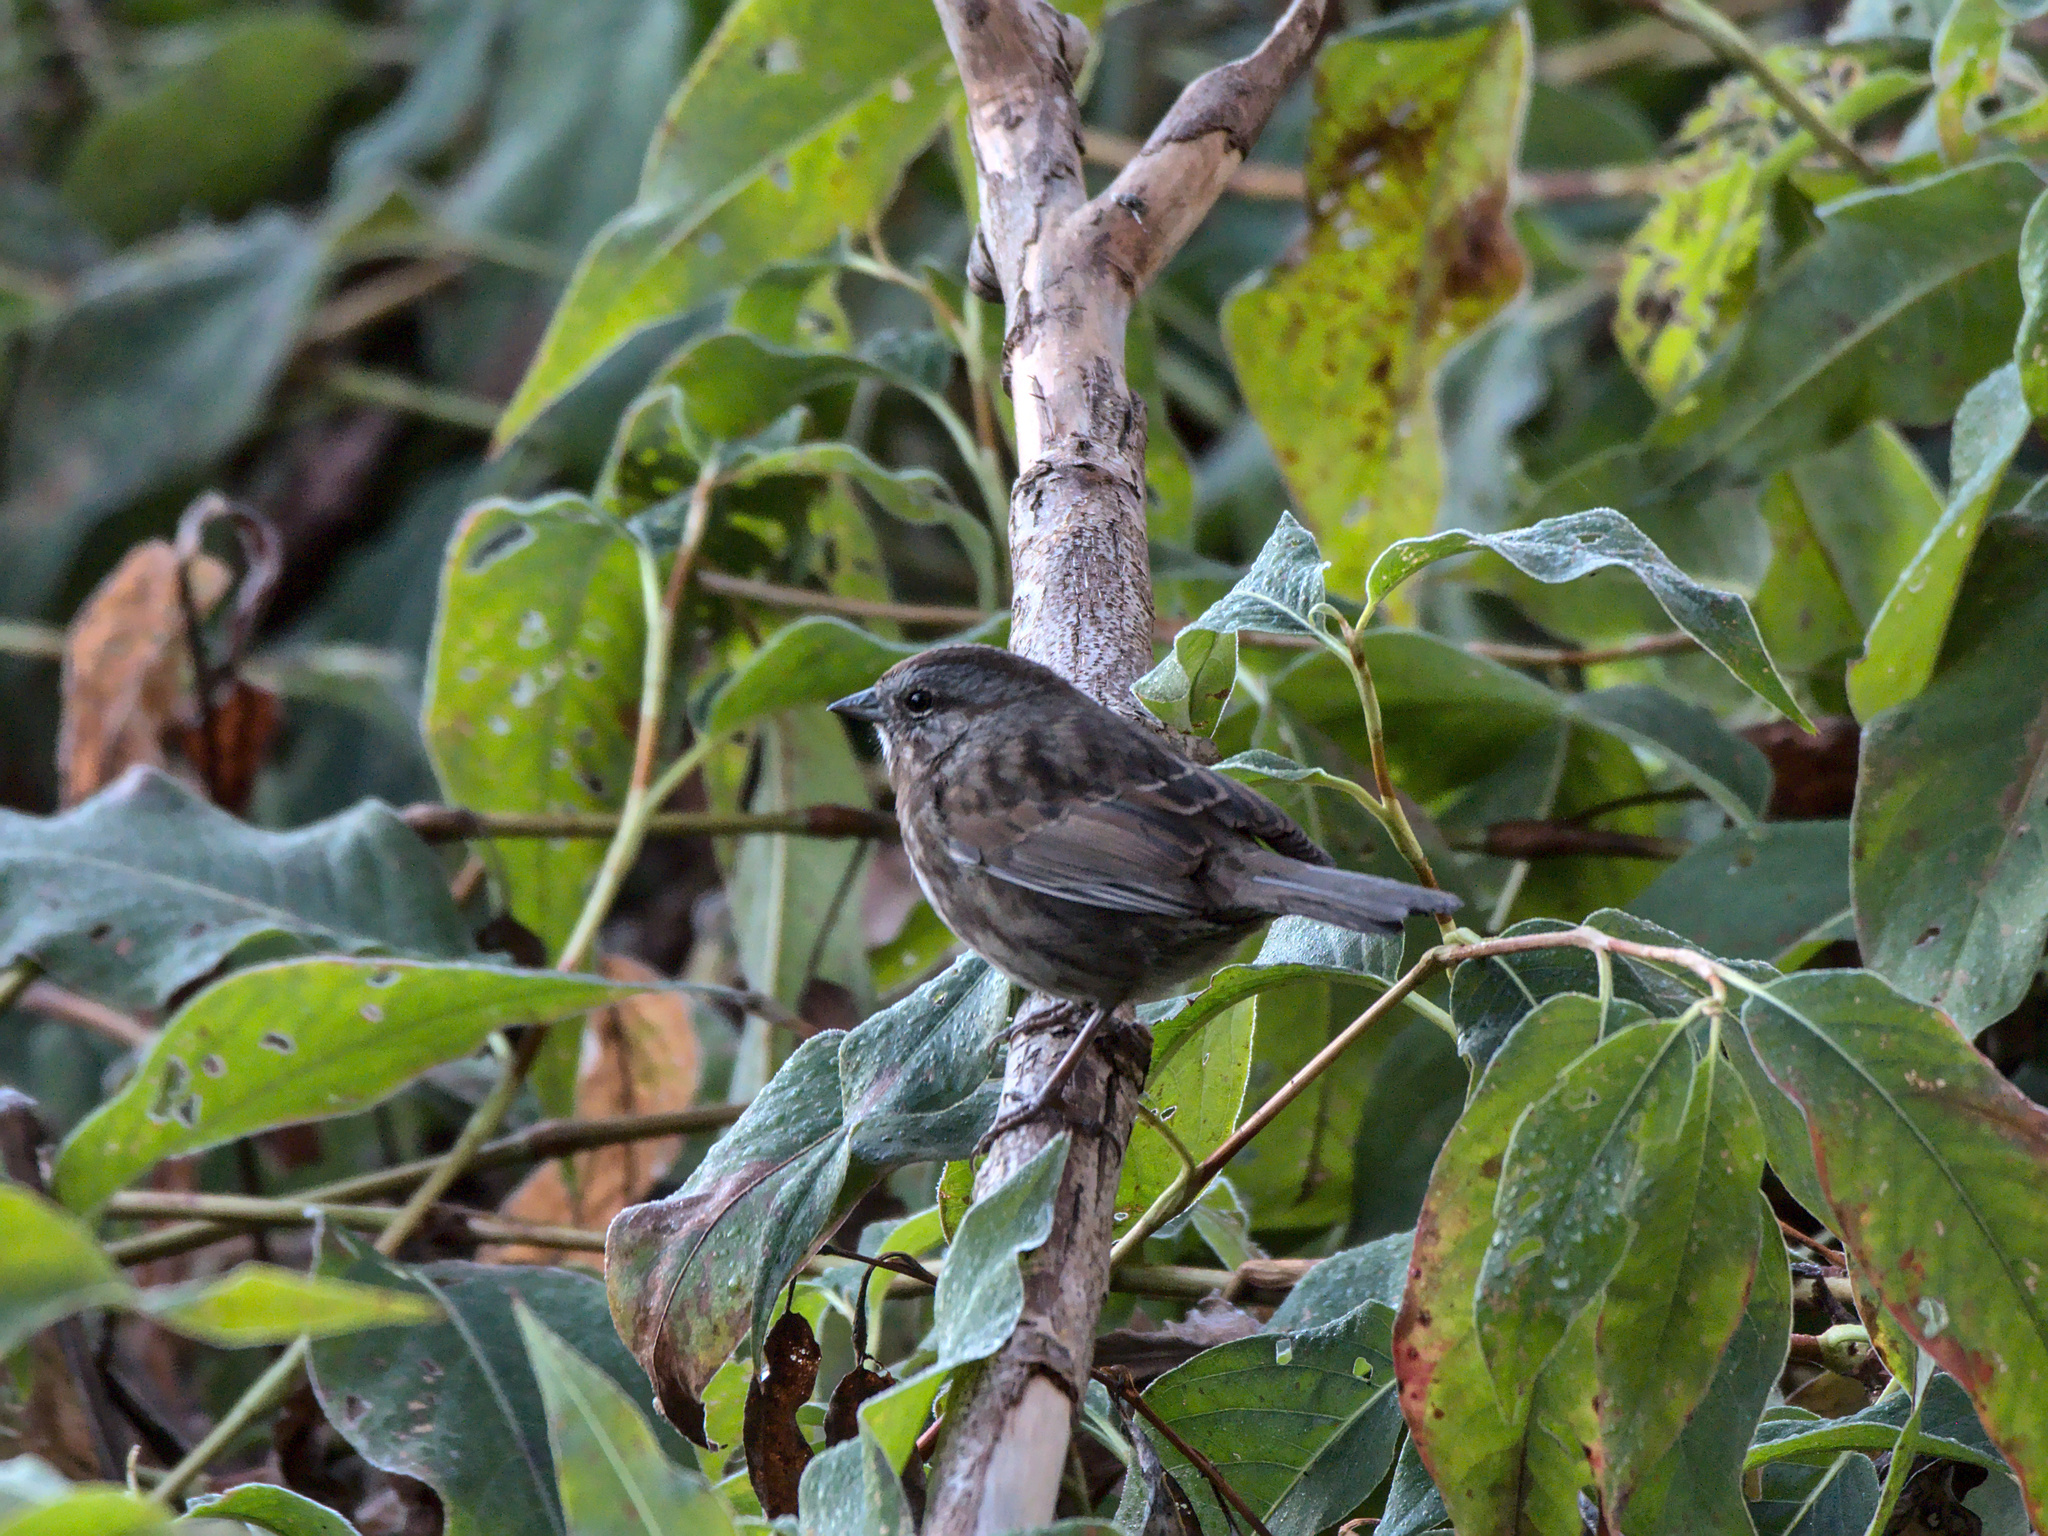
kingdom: Animalia
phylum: Chordata
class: Aves
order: Passeriformes
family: Passerellidae
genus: Melospiza
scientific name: Melospiza melodia
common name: Song sparrow
